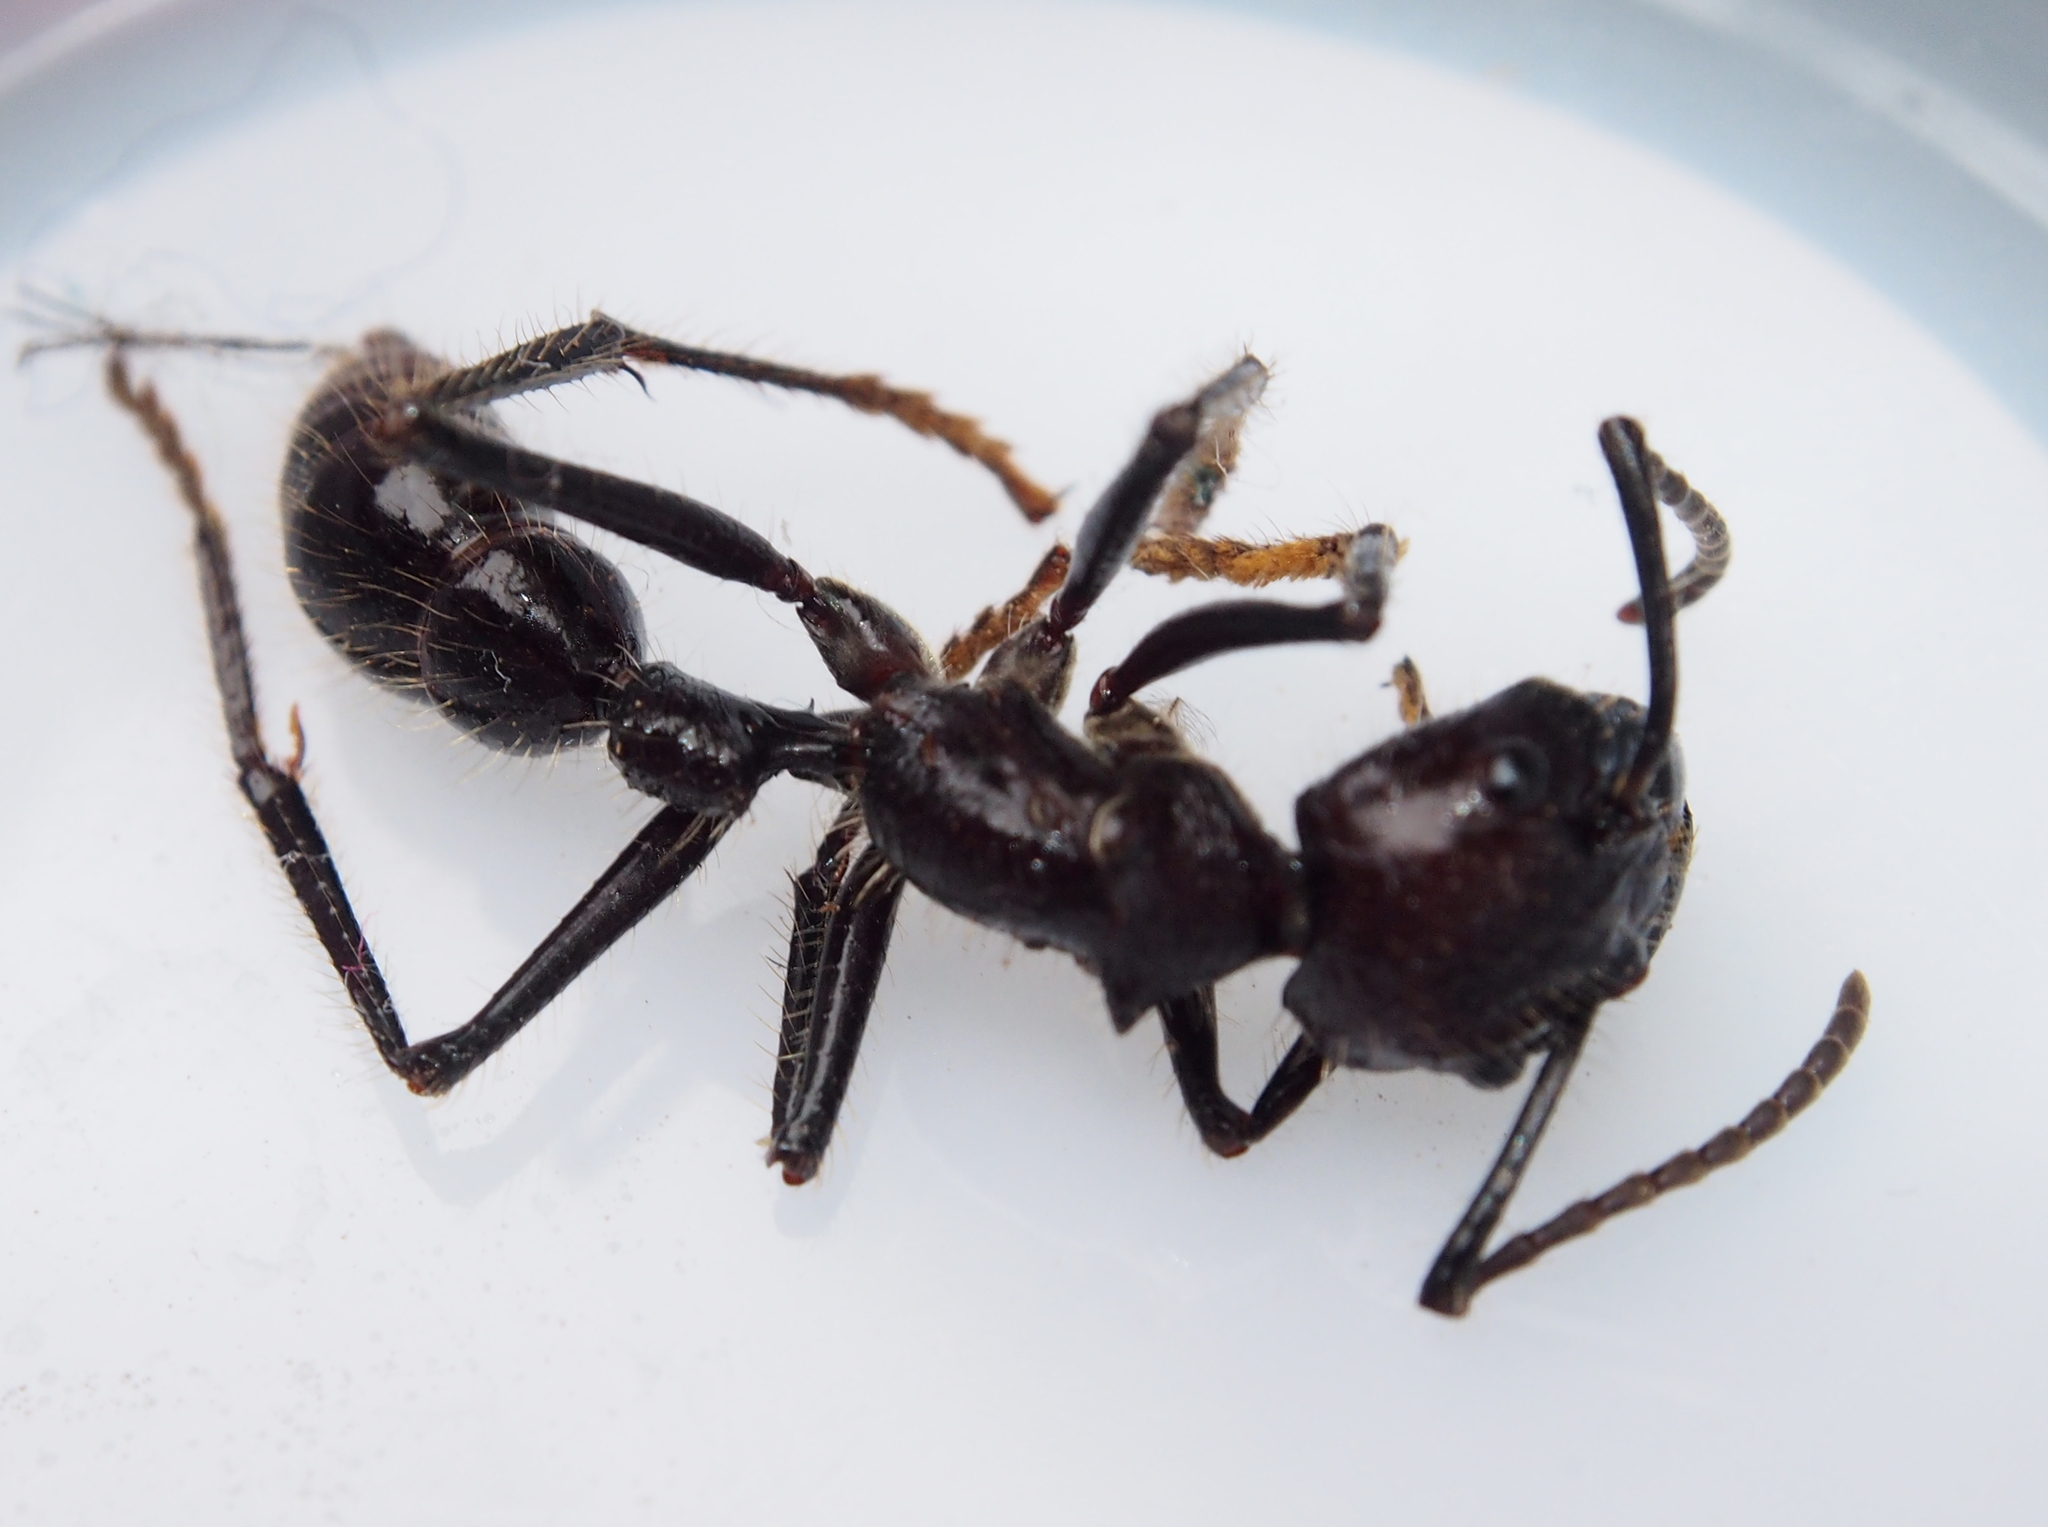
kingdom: Animalia
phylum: Arthropoda
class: Insecta
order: Hymenoptera
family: Formicidae
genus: Paraponera
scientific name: Paraponera clavata
